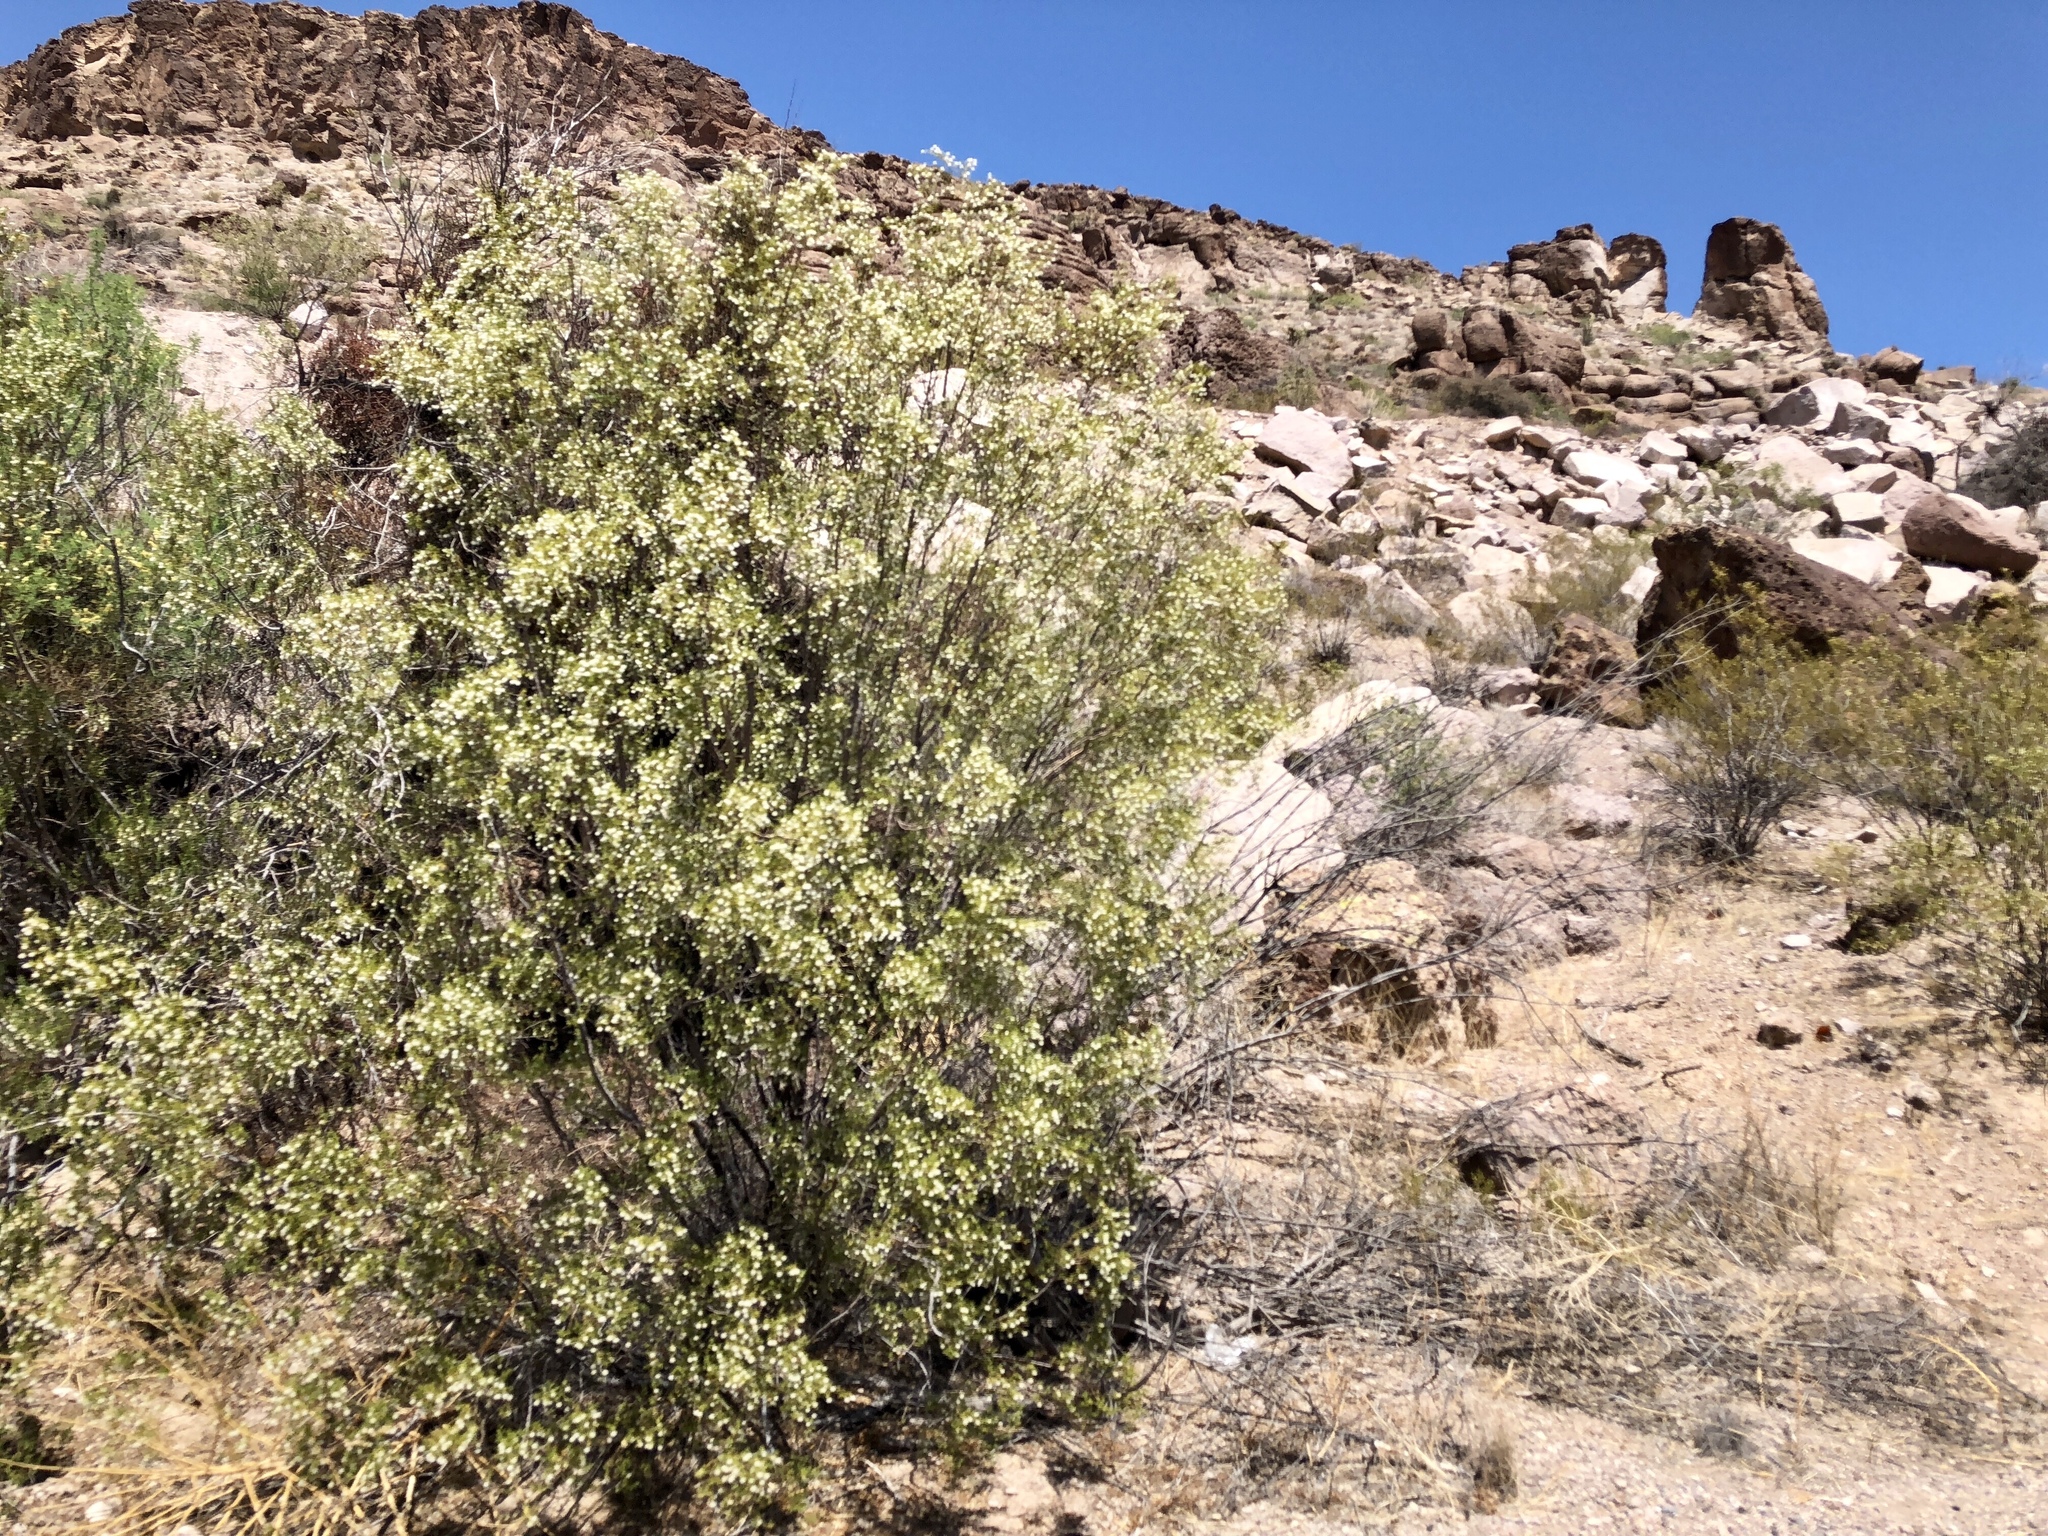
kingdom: Plantae
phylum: Tracheophyta
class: Magnoliopsida
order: Zygophyllales
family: Zygophyllaceae
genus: Larrea
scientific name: Larrea tridentata
